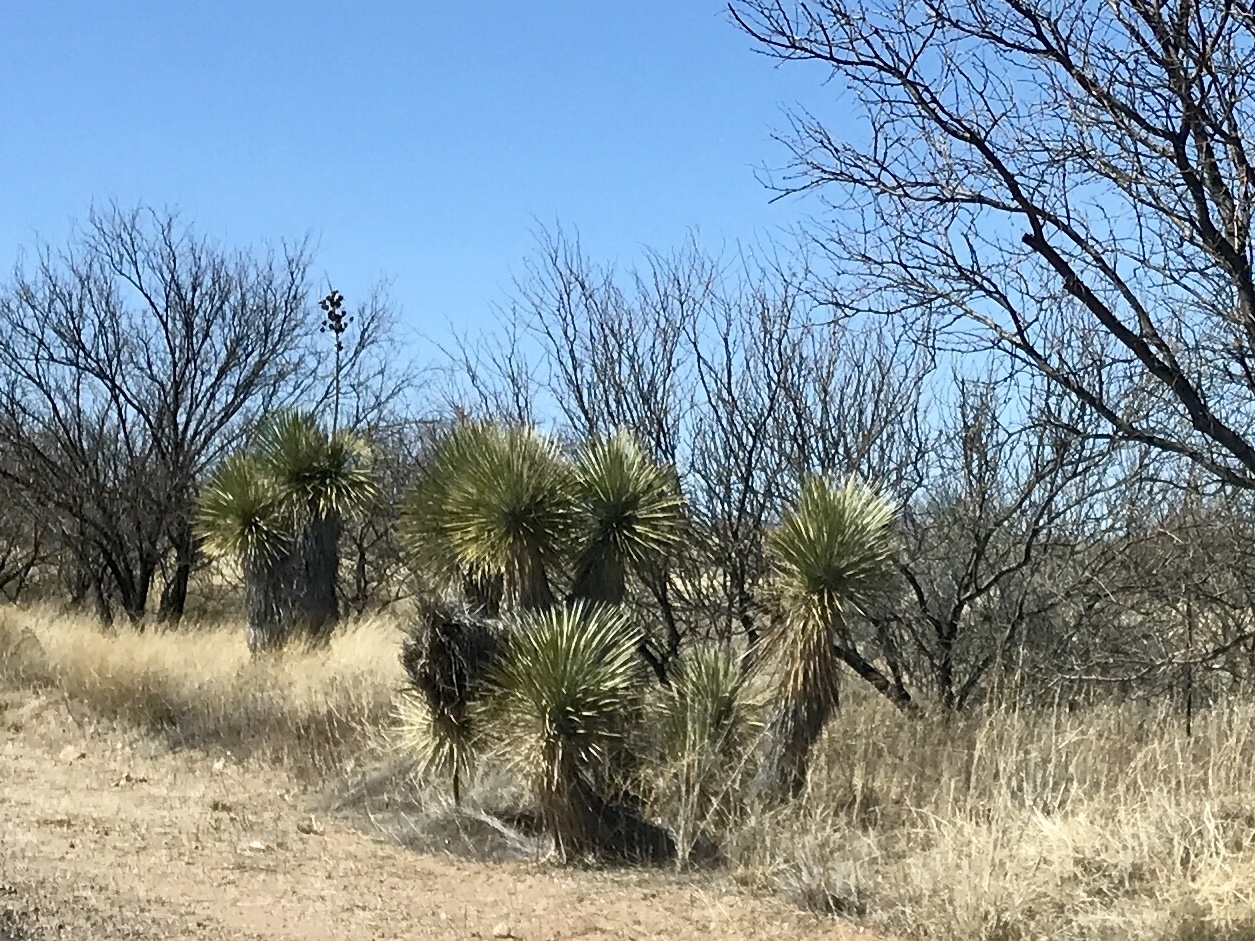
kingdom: Plantae
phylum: Tracheophyta
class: Liliopsida
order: Asparagales
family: Asparagaceae
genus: Yucca
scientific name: Yucca elata
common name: Palmella
